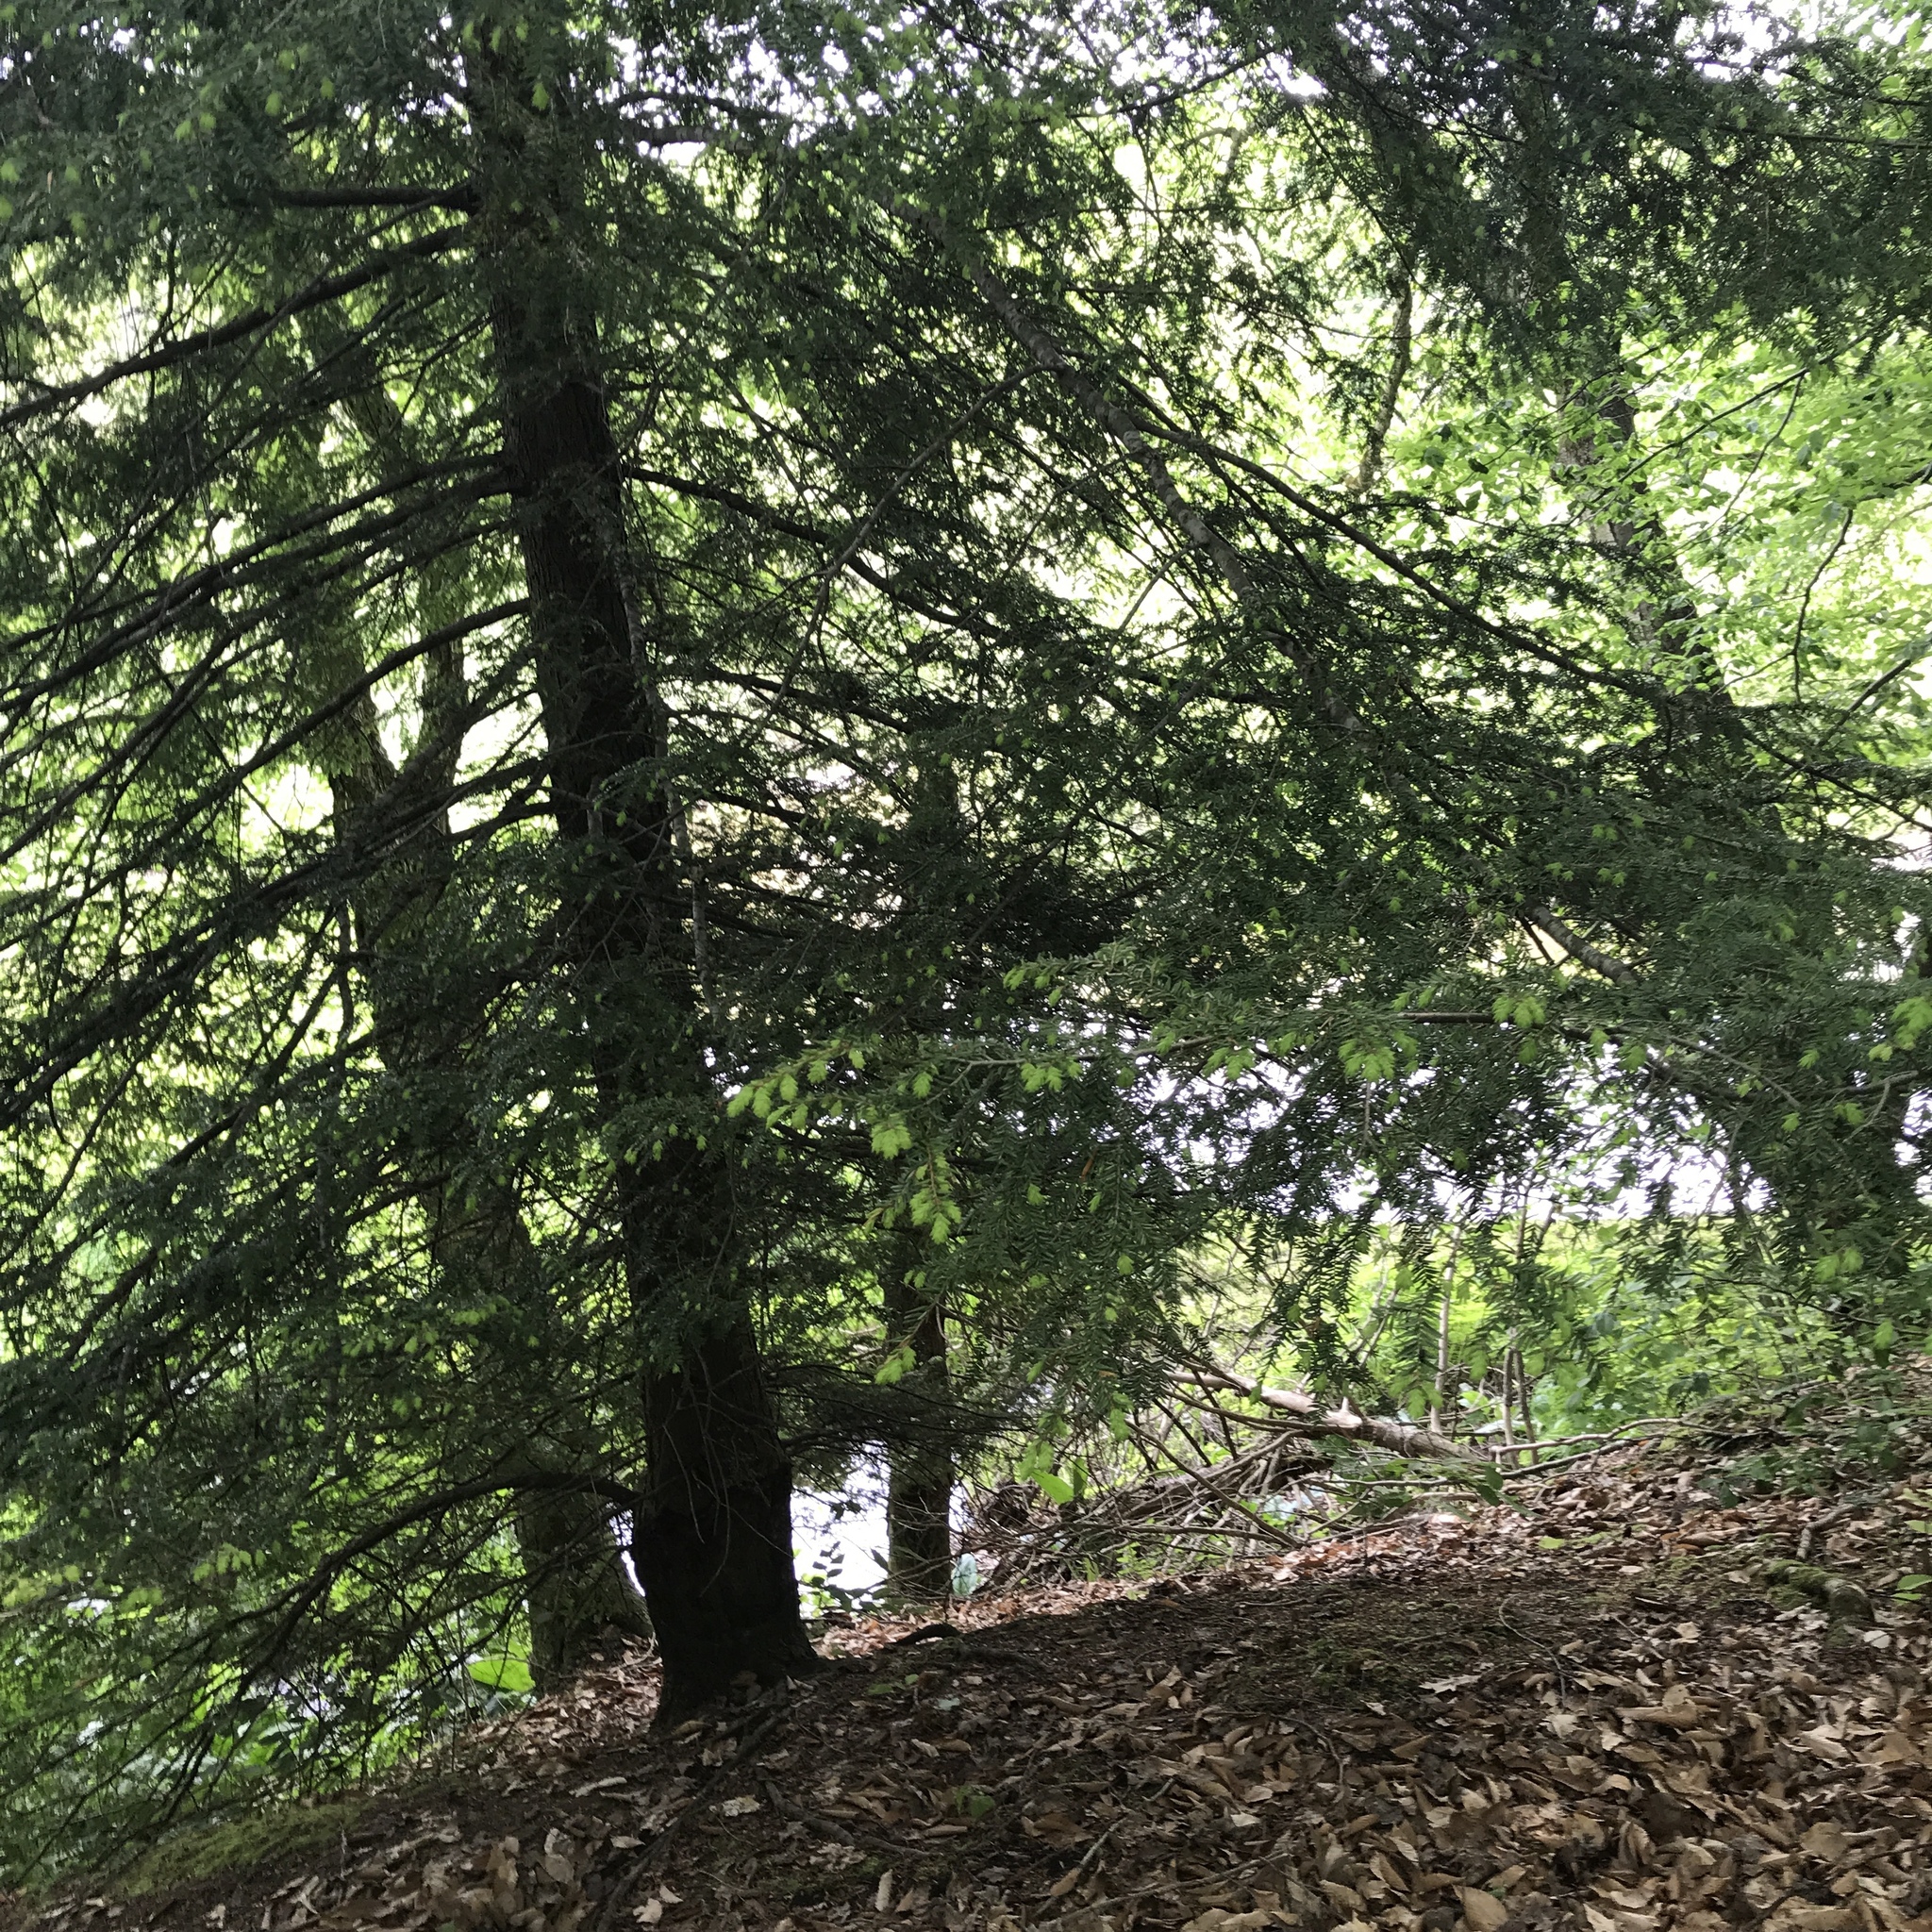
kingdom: Plantae
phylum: Tracheophyta
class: Pinopsida
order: Pinales
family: Pinaceae
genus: Tsuga
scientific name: Tsuga canadensis
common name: Eastern hemlock
